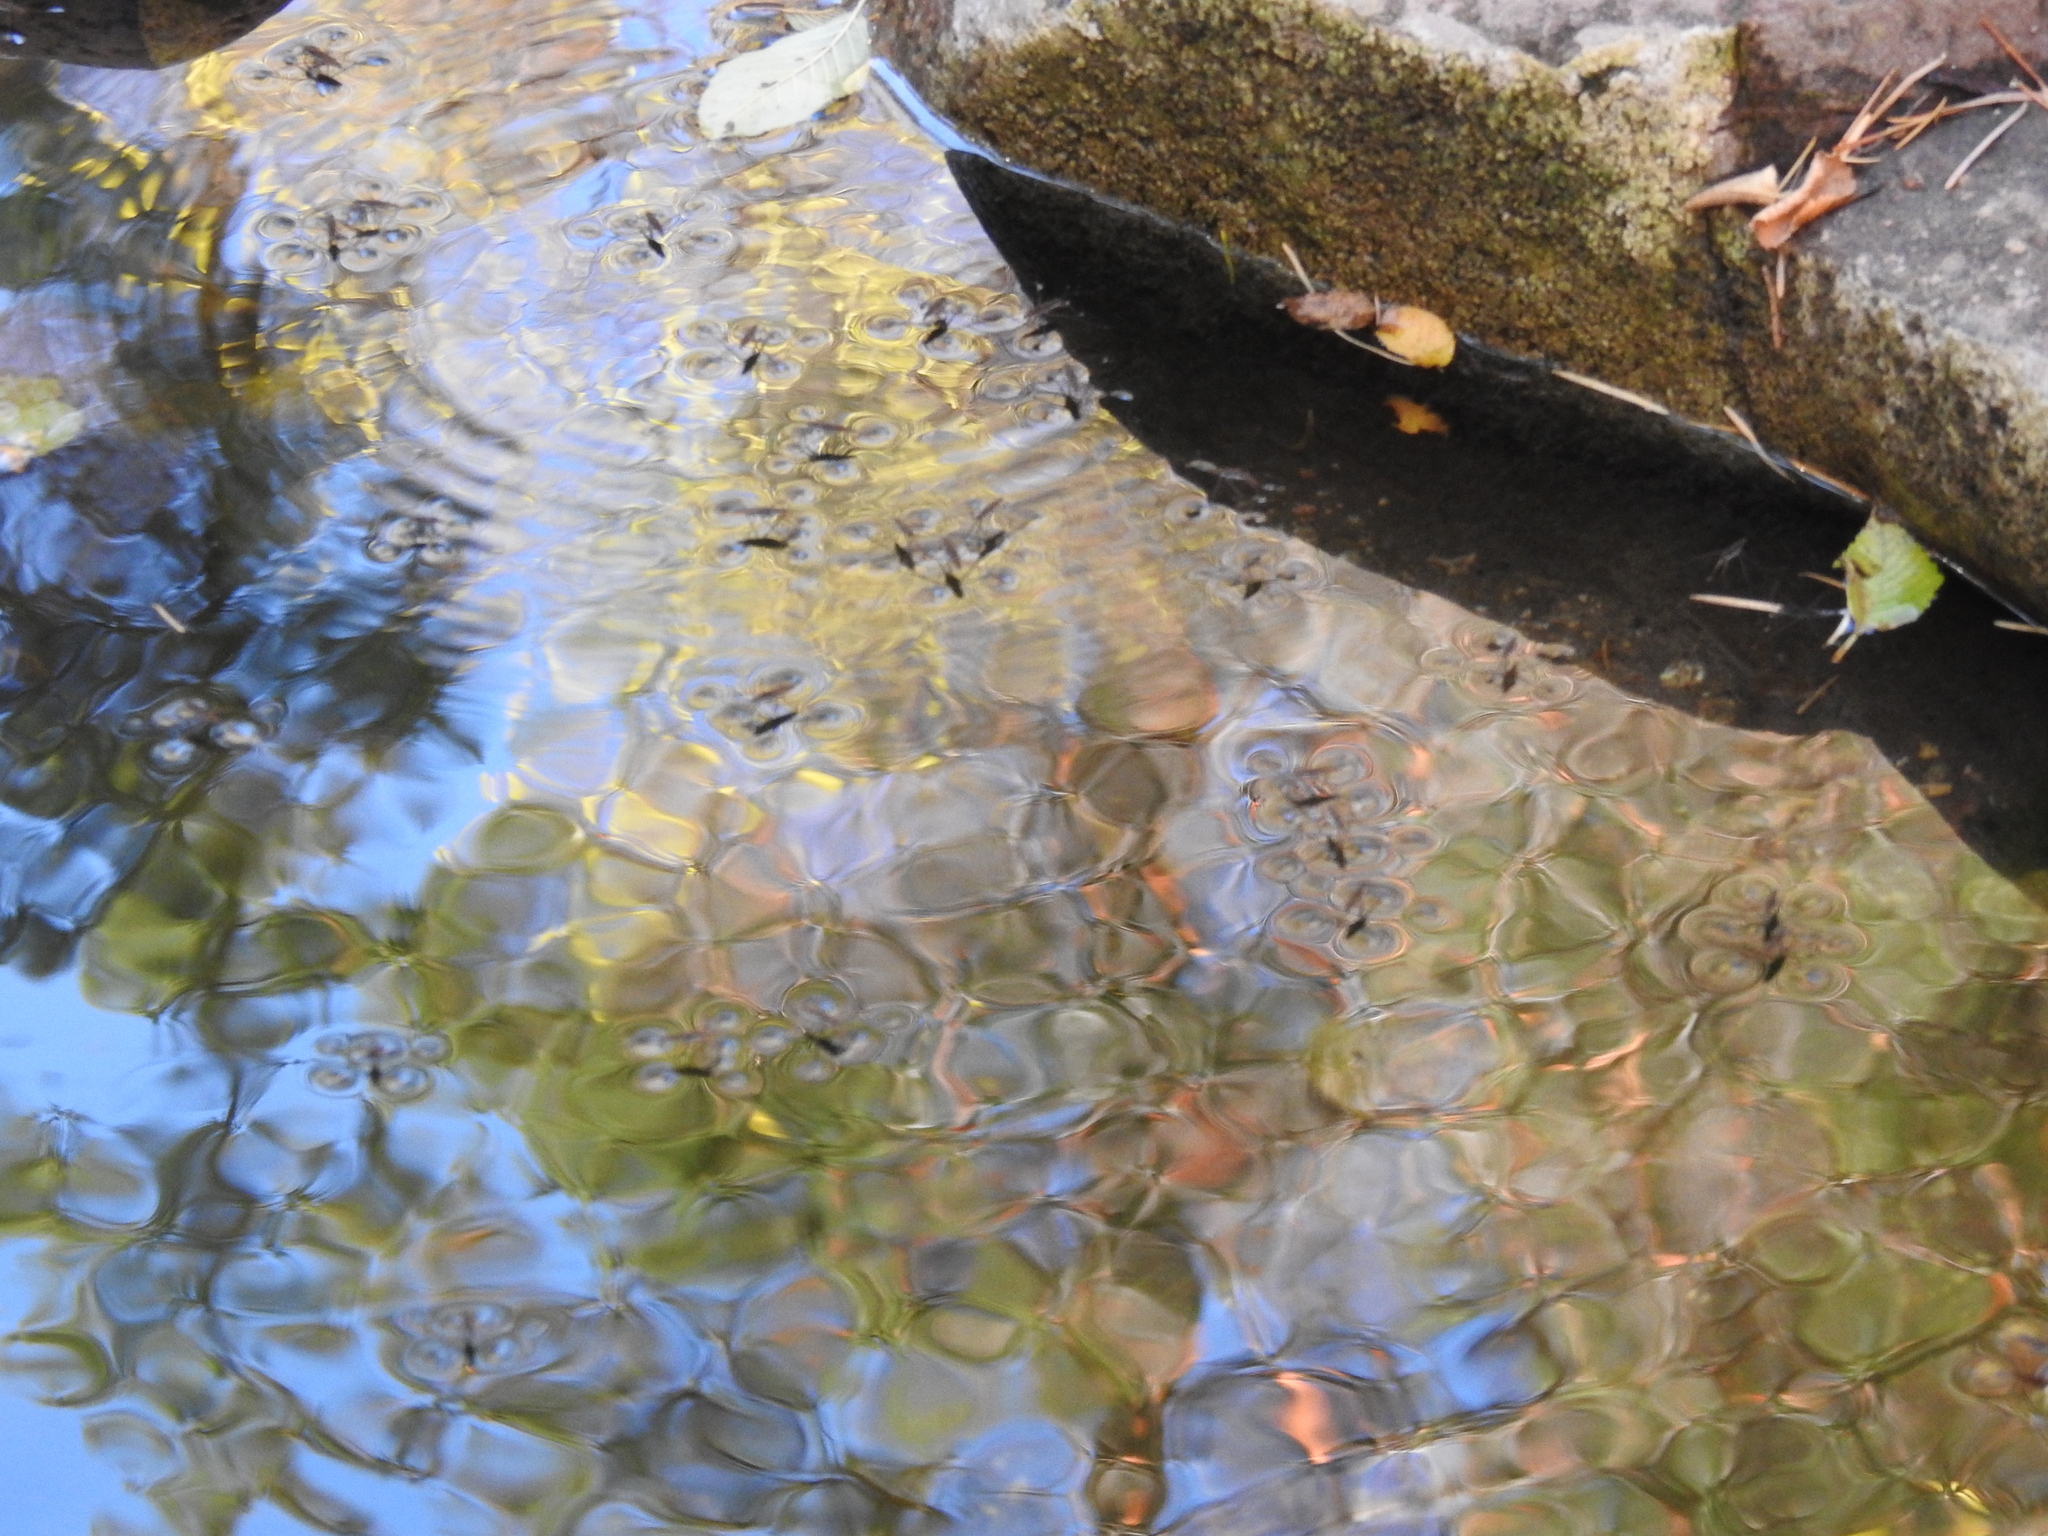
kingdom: Animalia
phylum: Arthropoda
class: Insecta
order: Hemiptera
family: Gerridae
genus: Aquarius
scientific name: Aquarius remigis
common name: Common water strider
